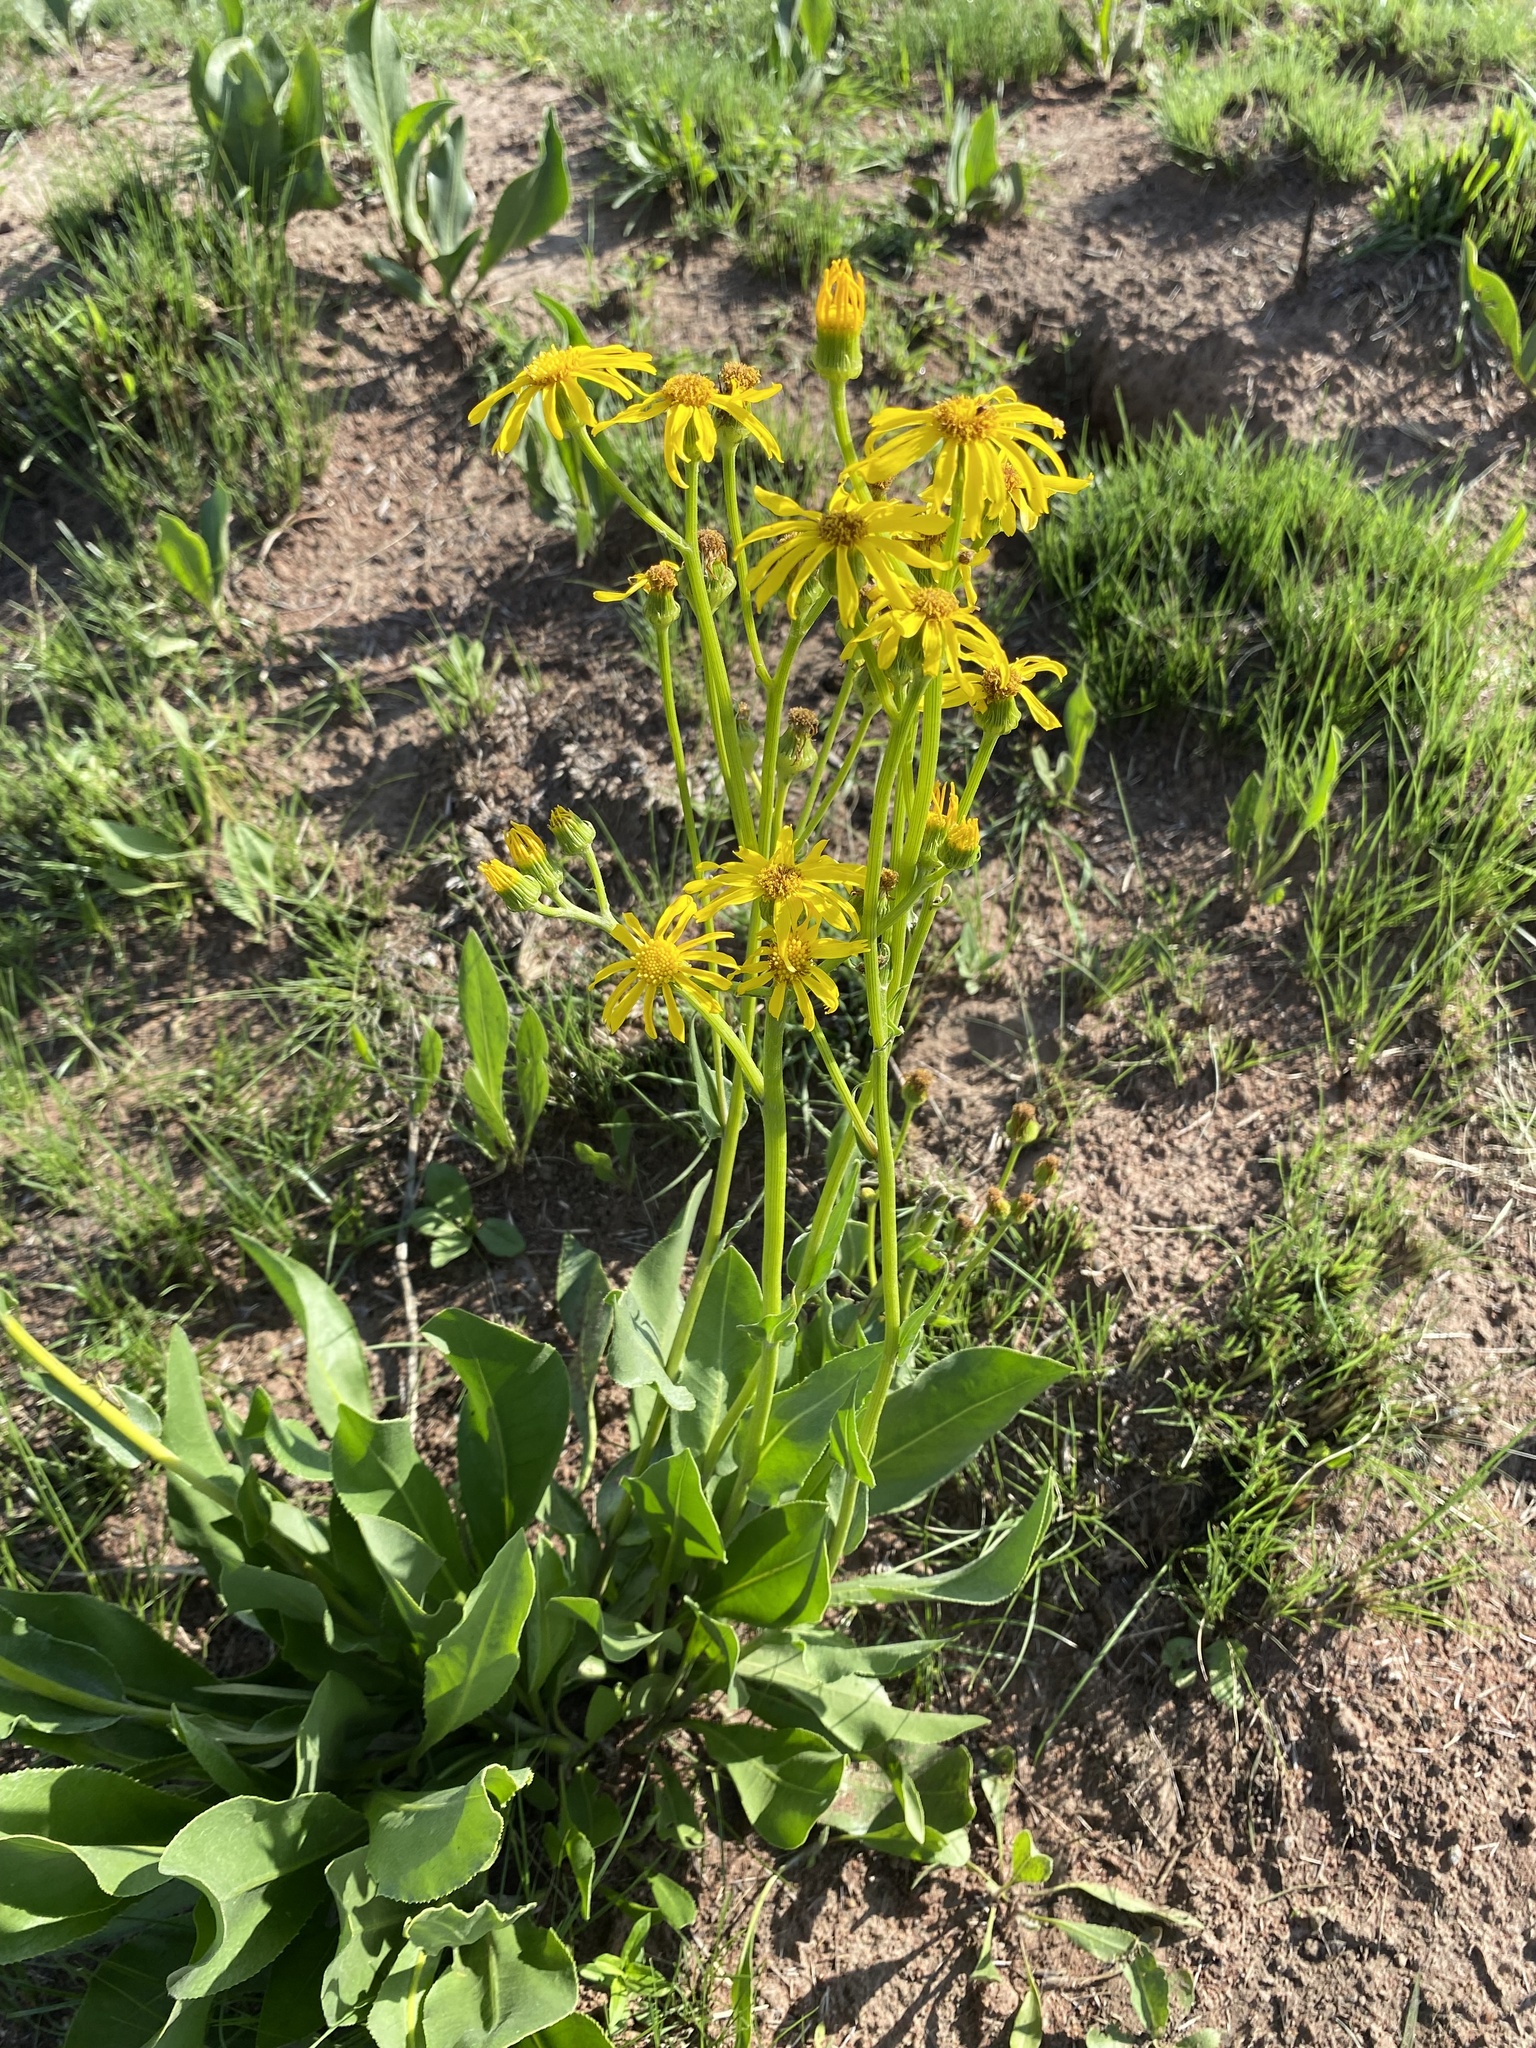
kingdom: Plantae
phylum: Tracheophyta
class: Magnoliopsida
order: Asterales
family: Asteraceae
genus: Senecio
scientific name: Senecio coronatus
